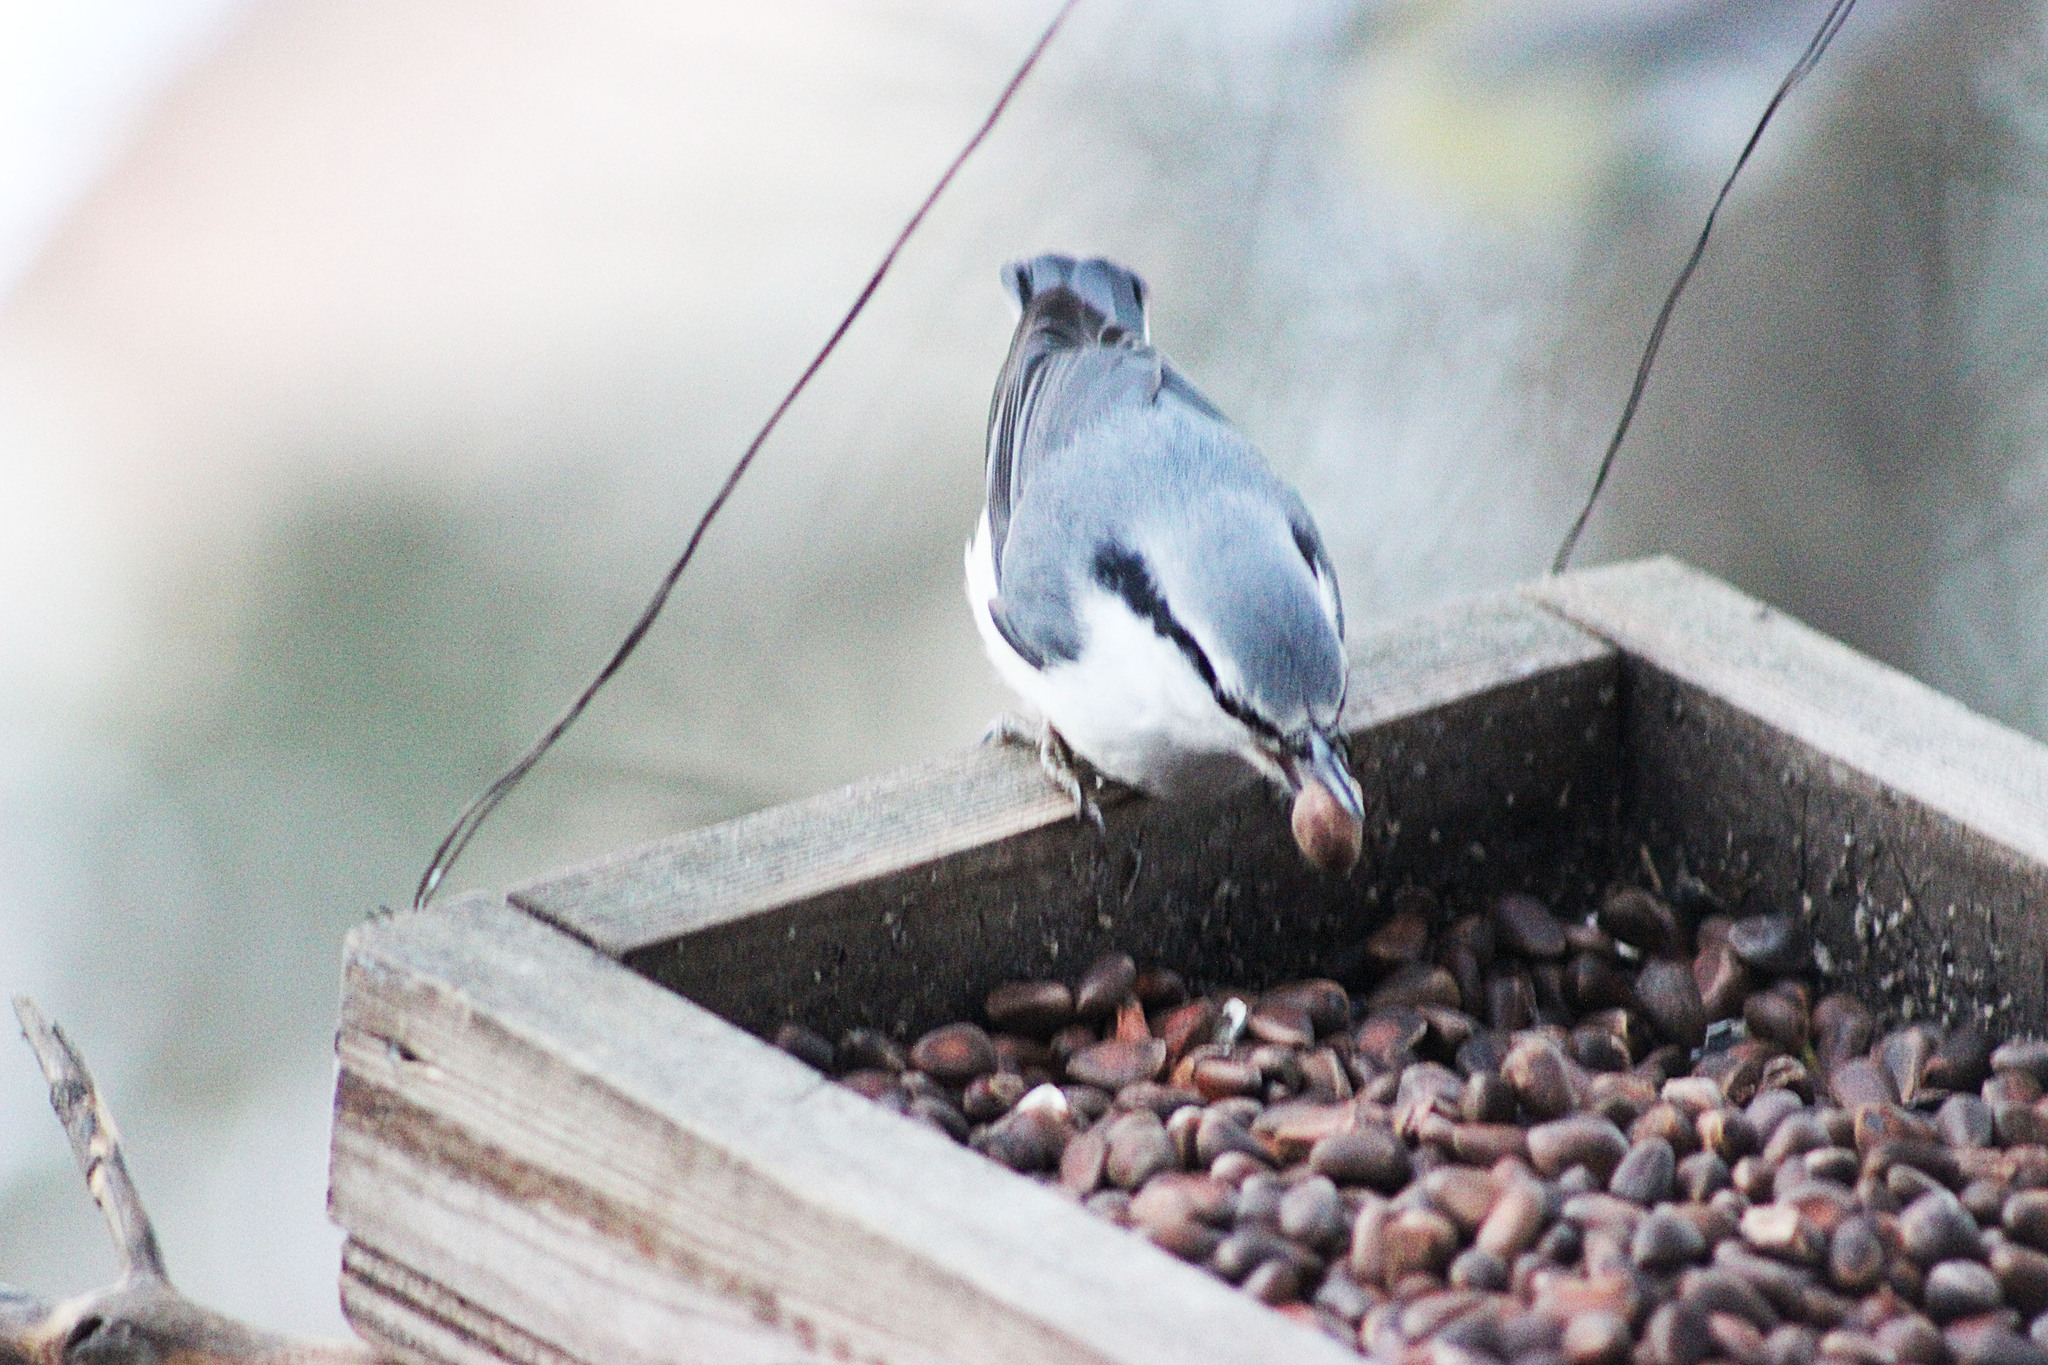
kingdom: Animalia
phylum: Chordata
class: Aves
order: Passeriformes
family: Sittidae
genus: Sitta
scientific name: Sitta europaea
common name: Eurasian nuthatch
